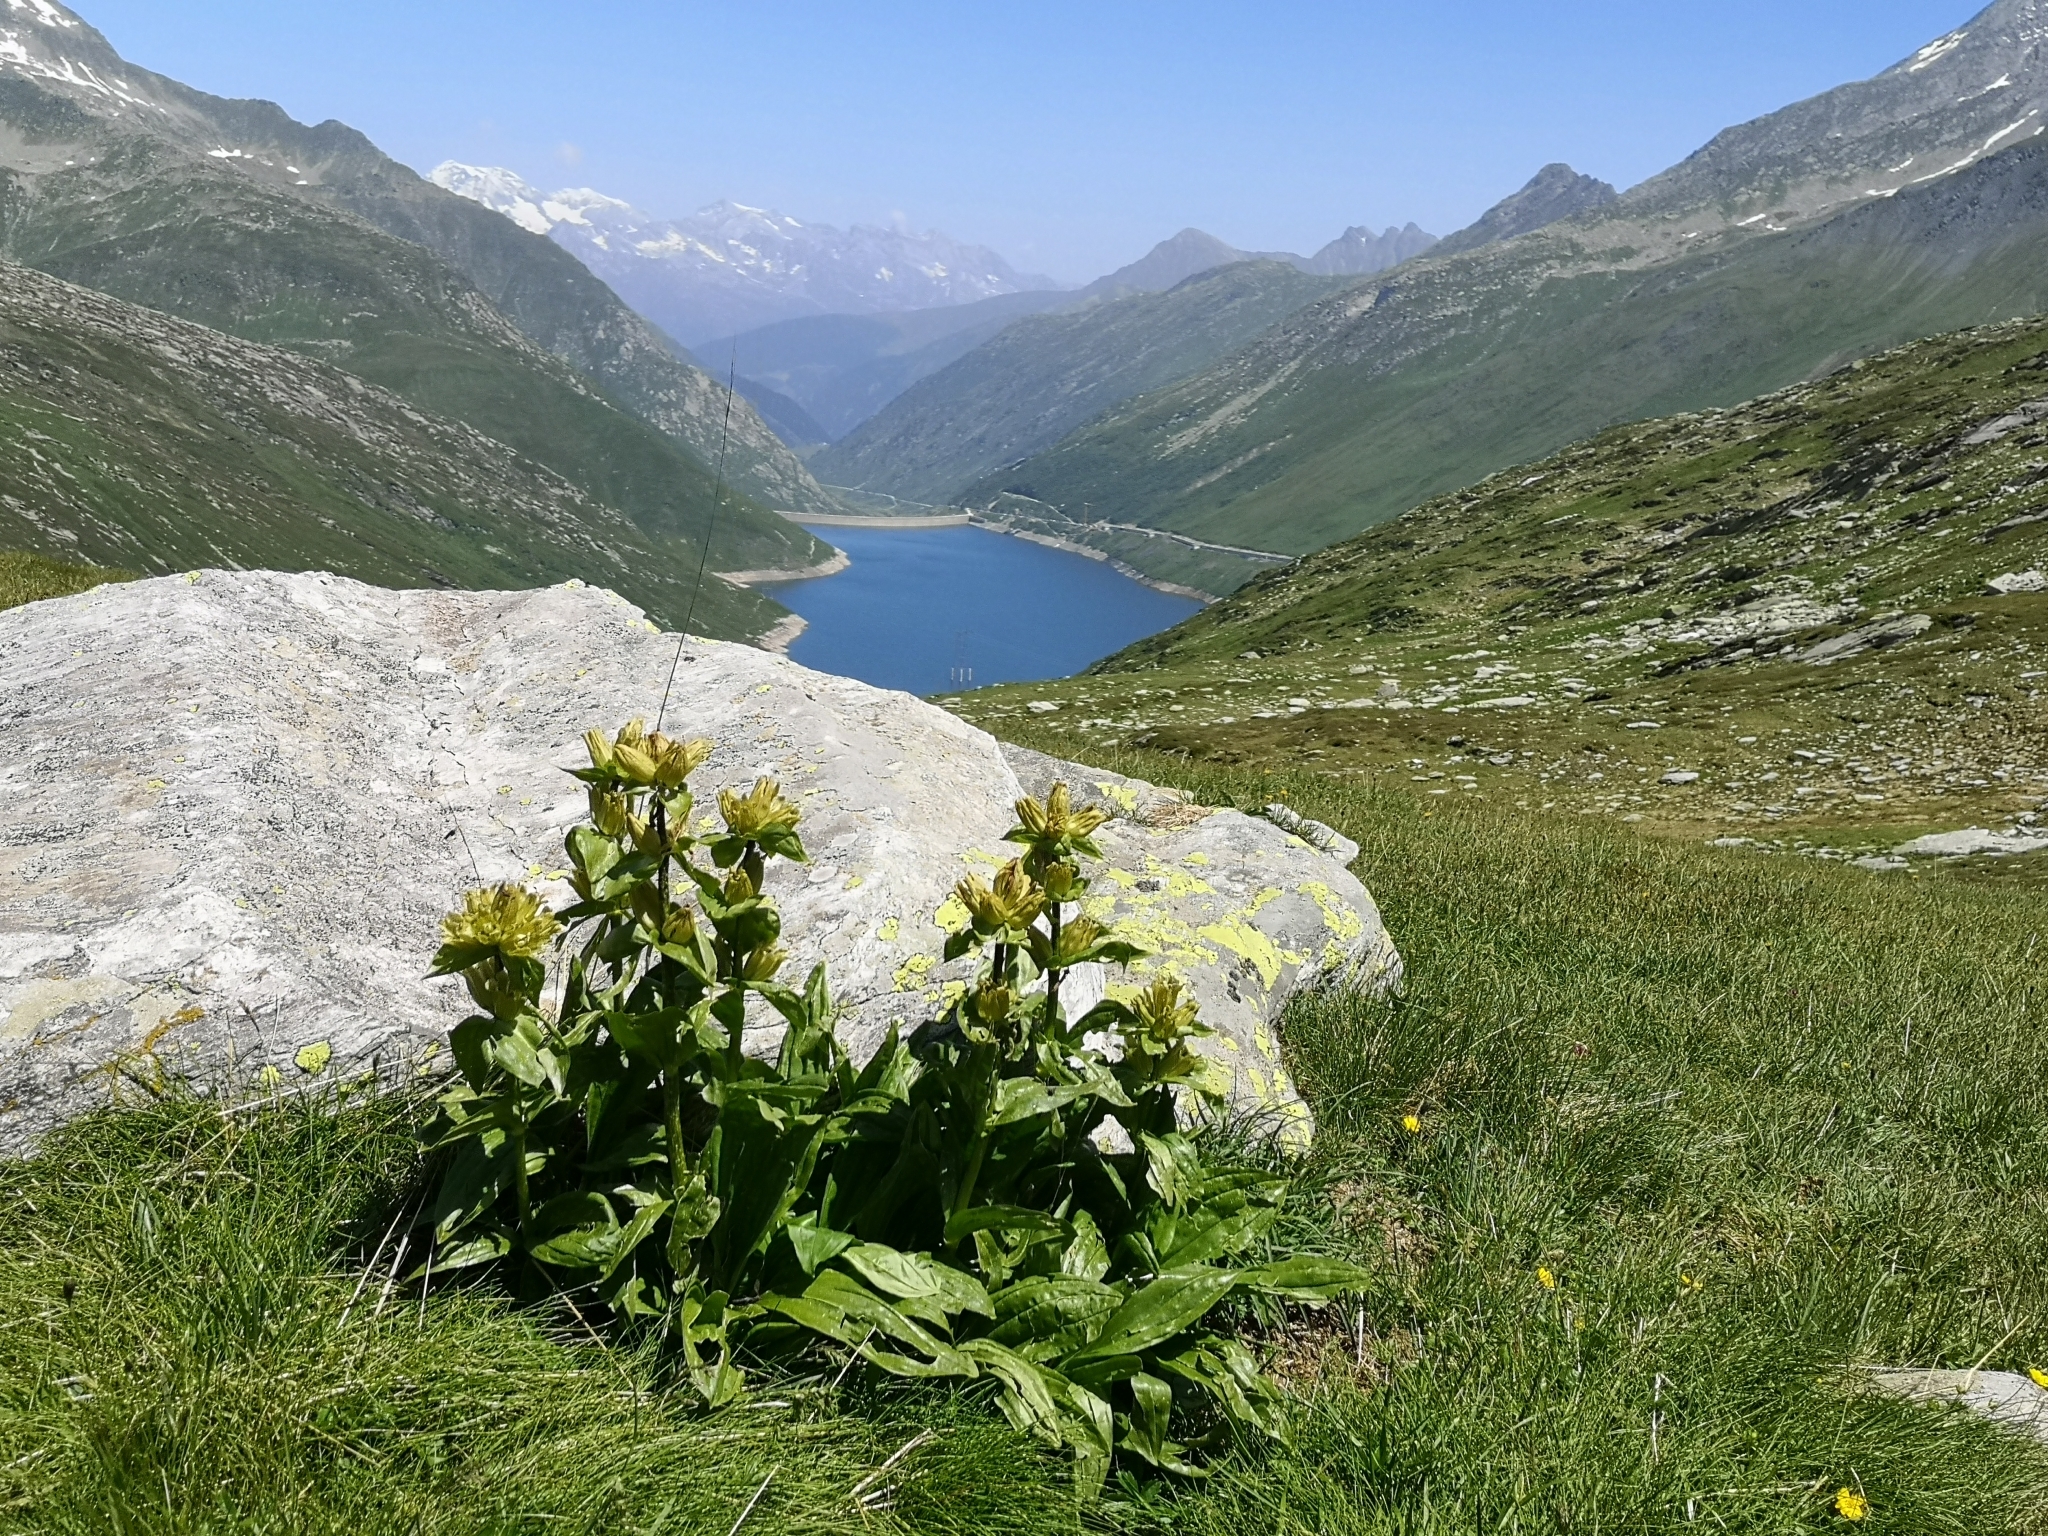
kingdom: Plantae
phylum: Tracheophyta
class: Magnoliopsida
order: Gentianales
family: Gentianaceae
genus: Gentiana
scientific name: Gentiana punctata
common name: Spotted gentian
